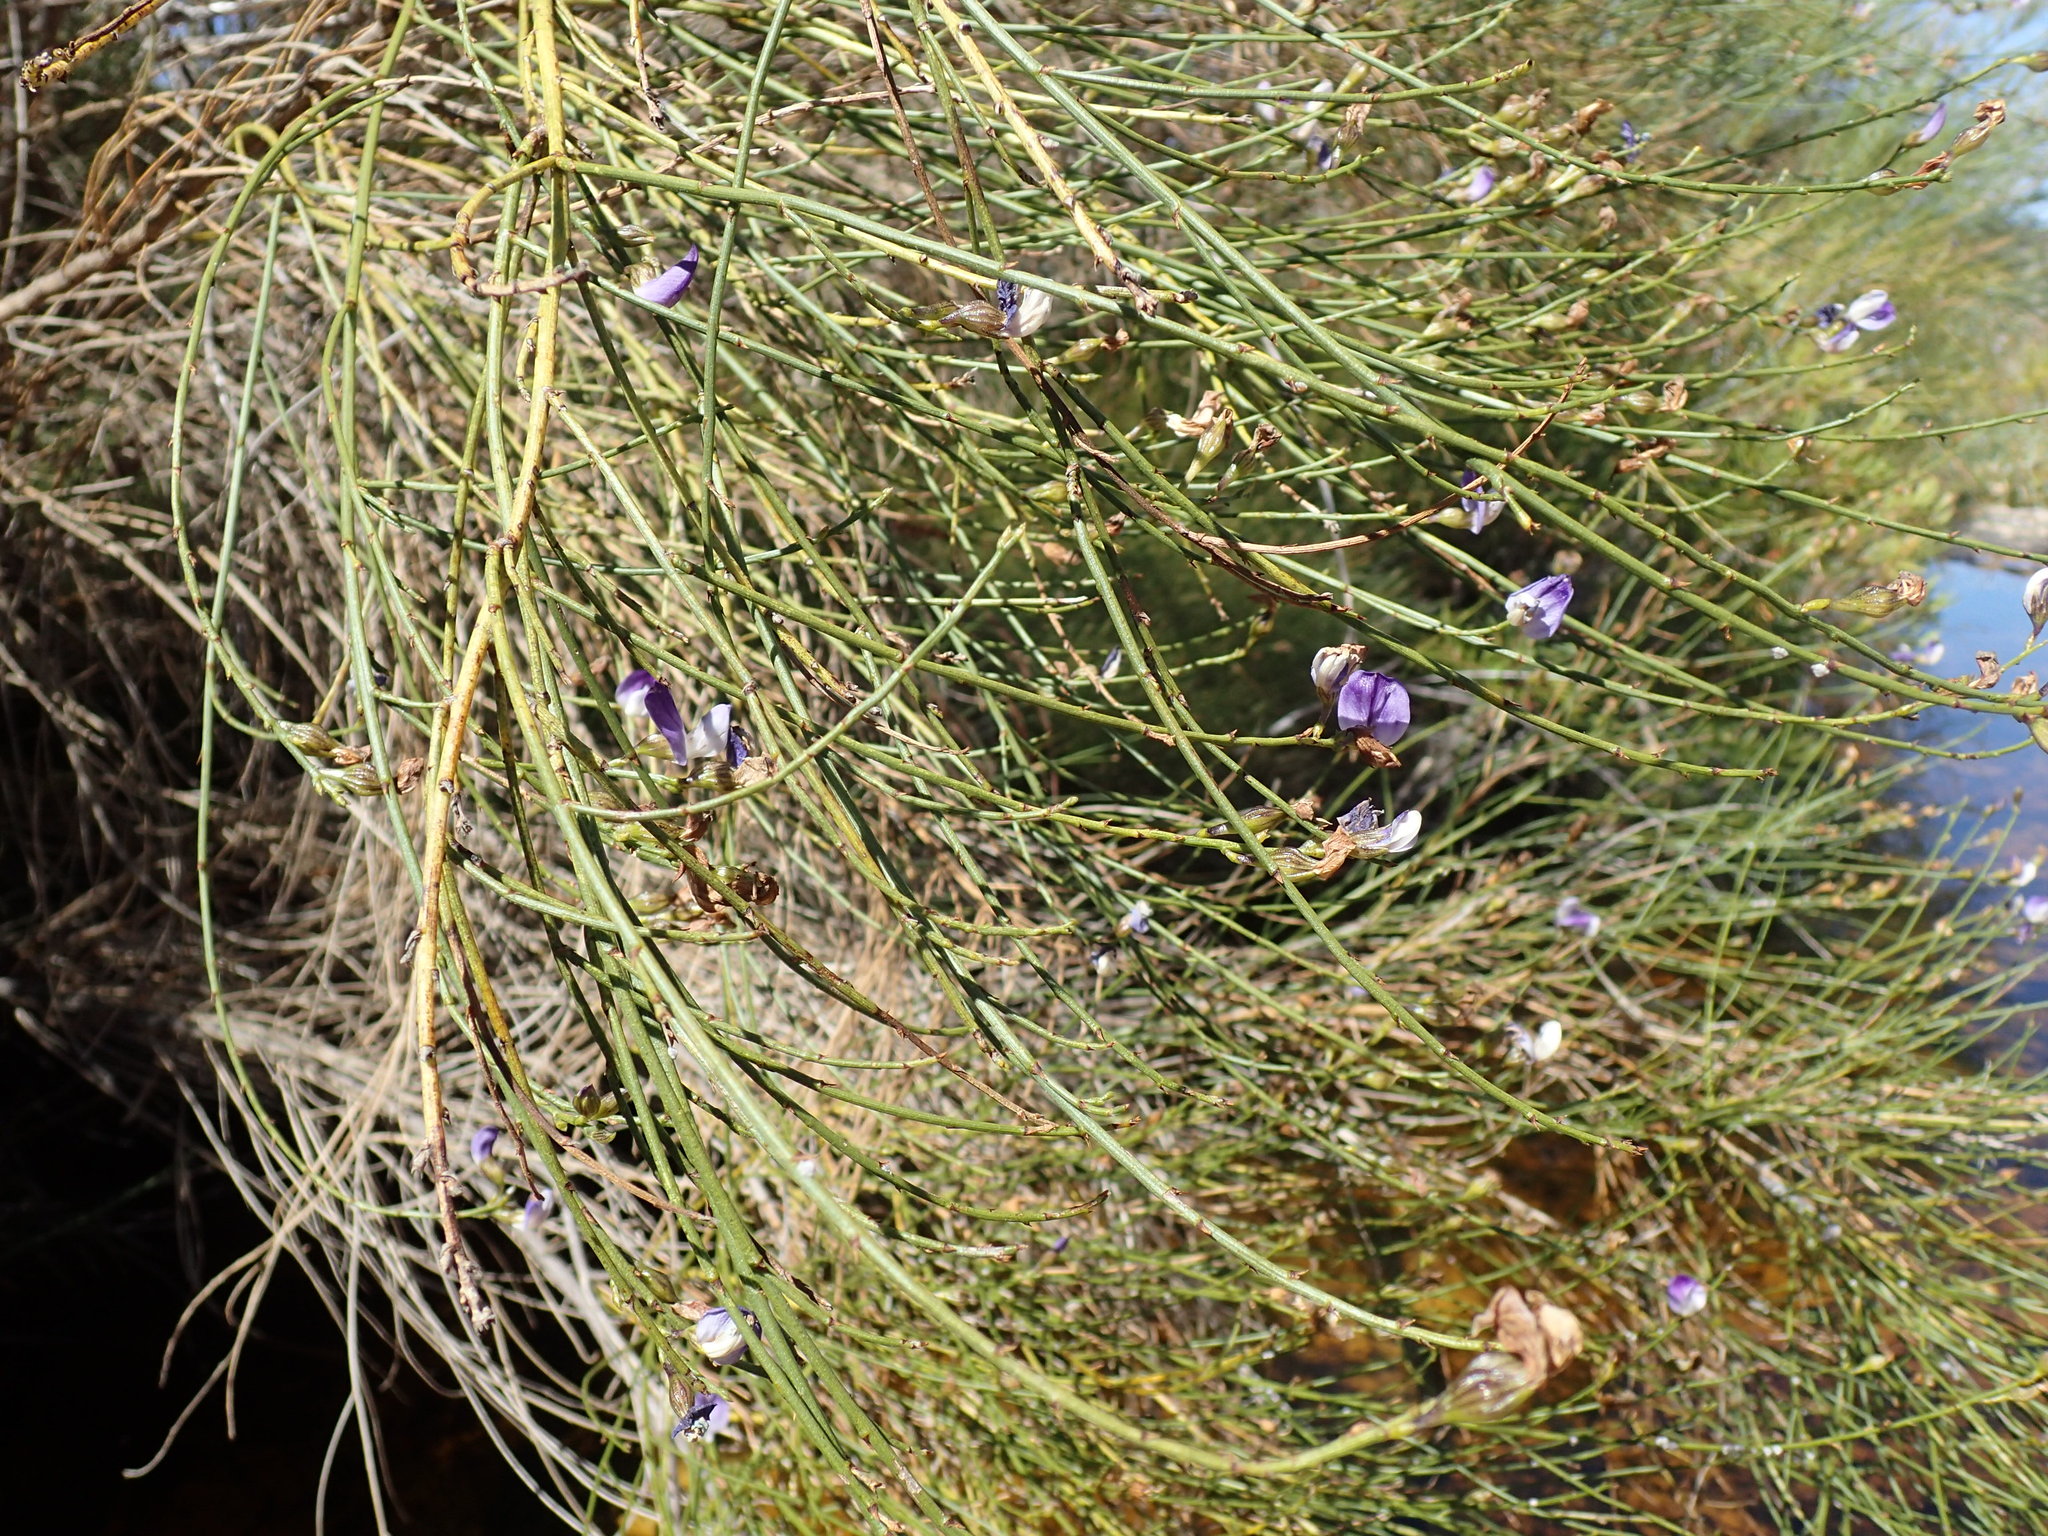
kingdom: Plantae
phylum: Tracheophyta
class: Magnoliopsida
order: Fabales
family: Fabaceae
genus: Psoralea
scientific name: Psoralea usitata
